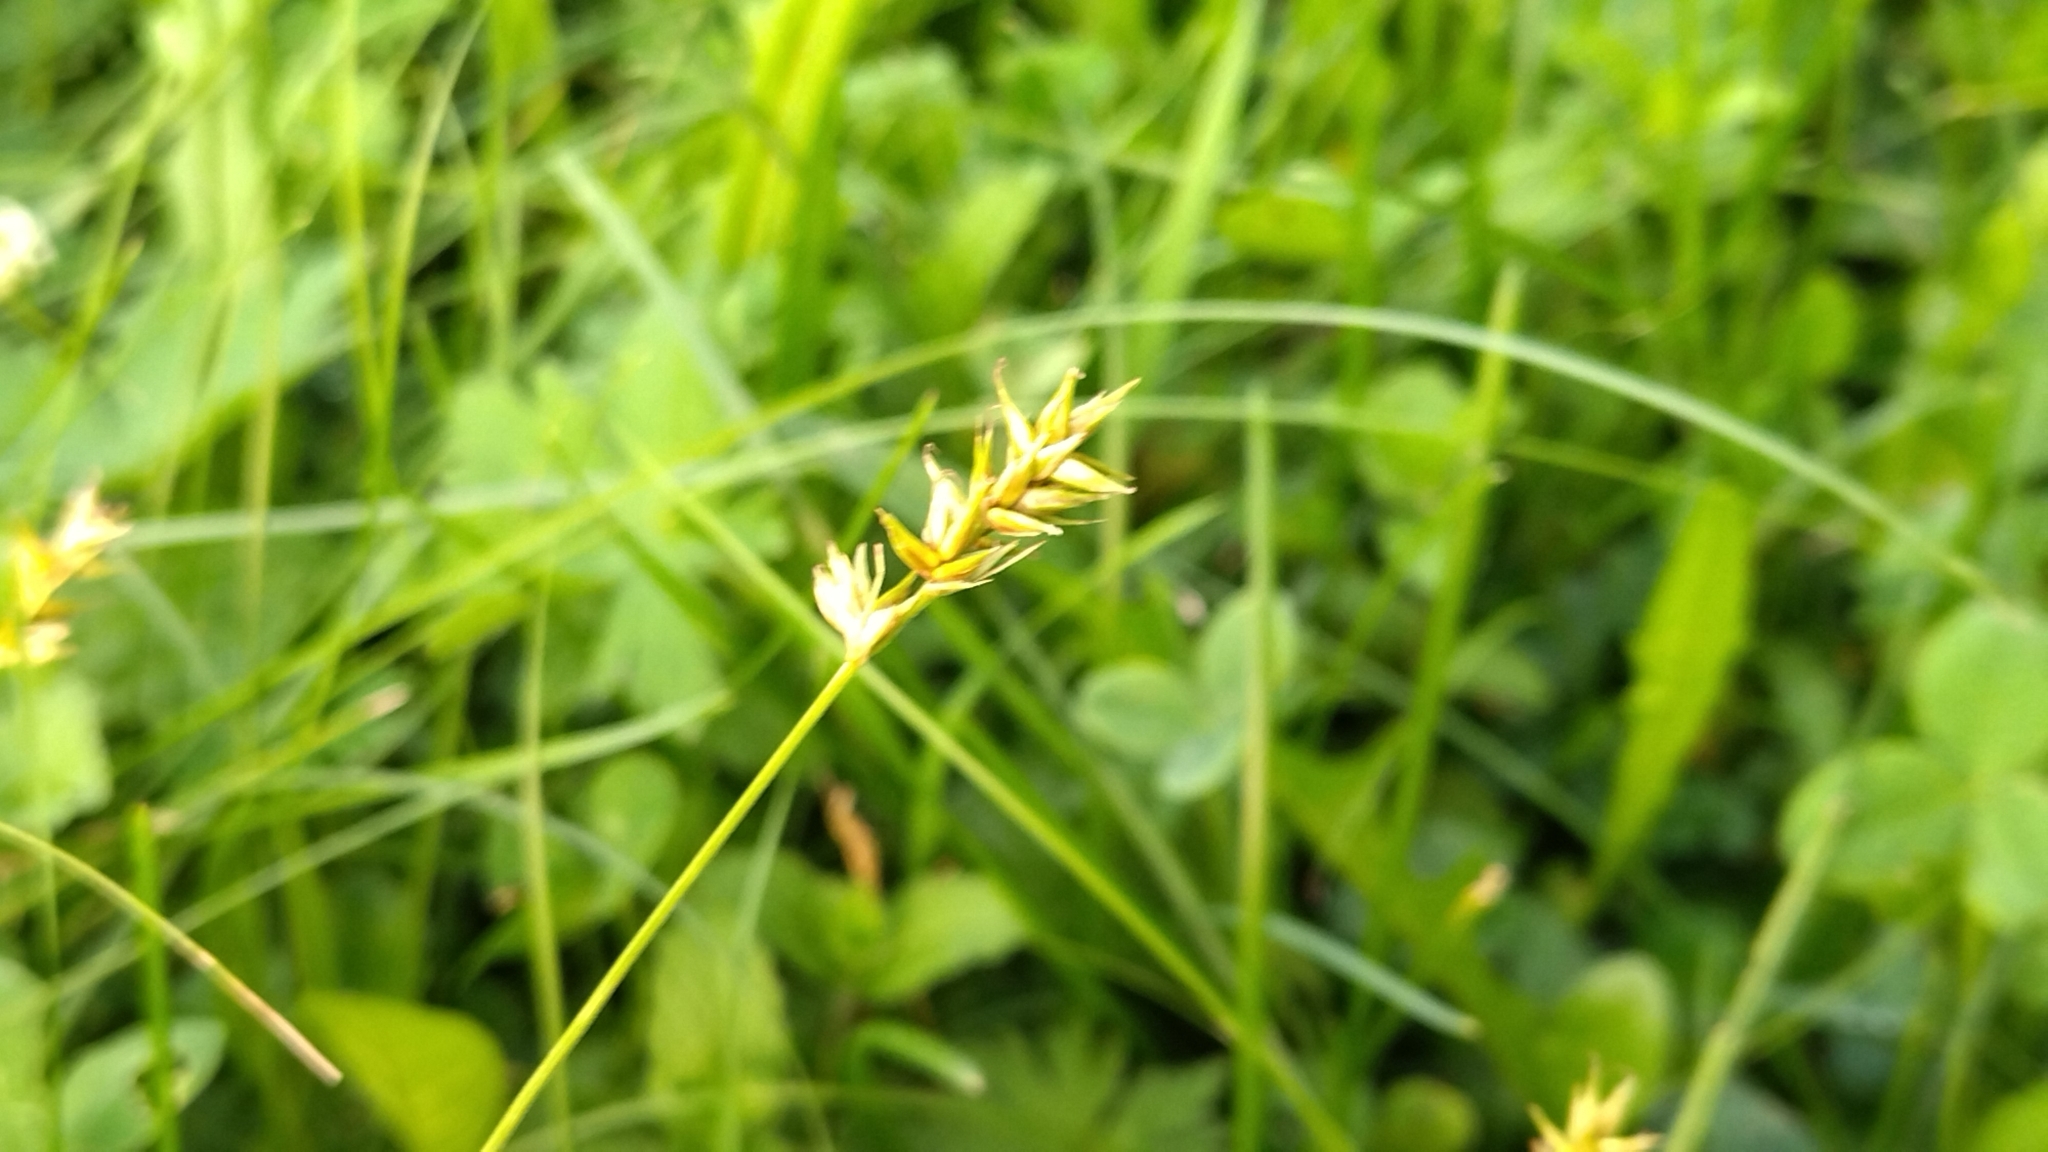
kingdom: Plantae
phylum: Tracheophyta
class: Liliopsida
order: Poales
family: Cyperaceae
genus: Carex
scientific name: Carex spicata
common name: Spiked sedge
